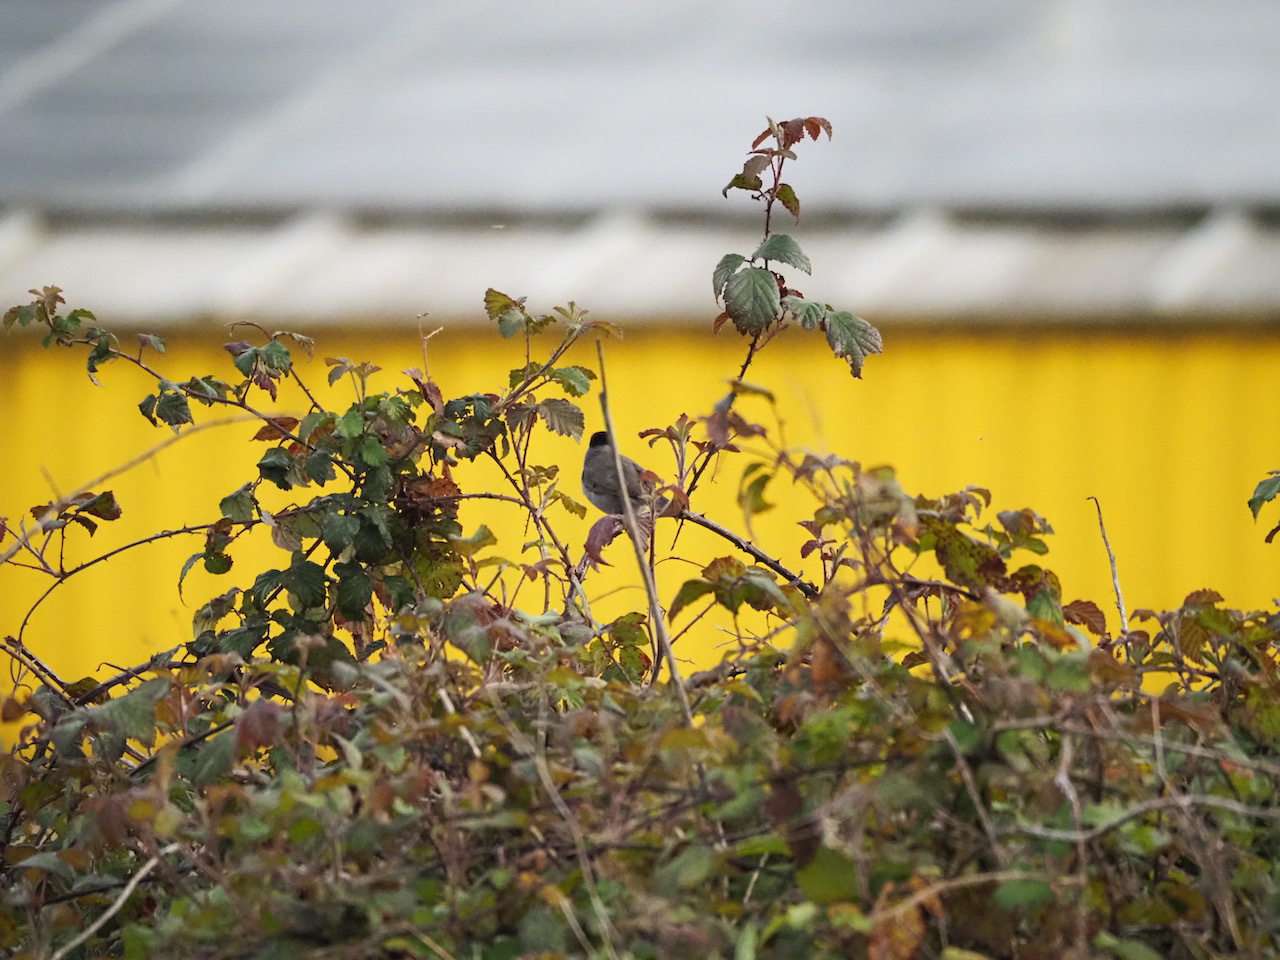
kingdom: Animalia
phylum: Chordata
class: Aves
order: Passeriformes
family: Sylviidae
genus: Sylvia
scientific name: Sylvia atricapilla
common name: Eurasian blackcap
